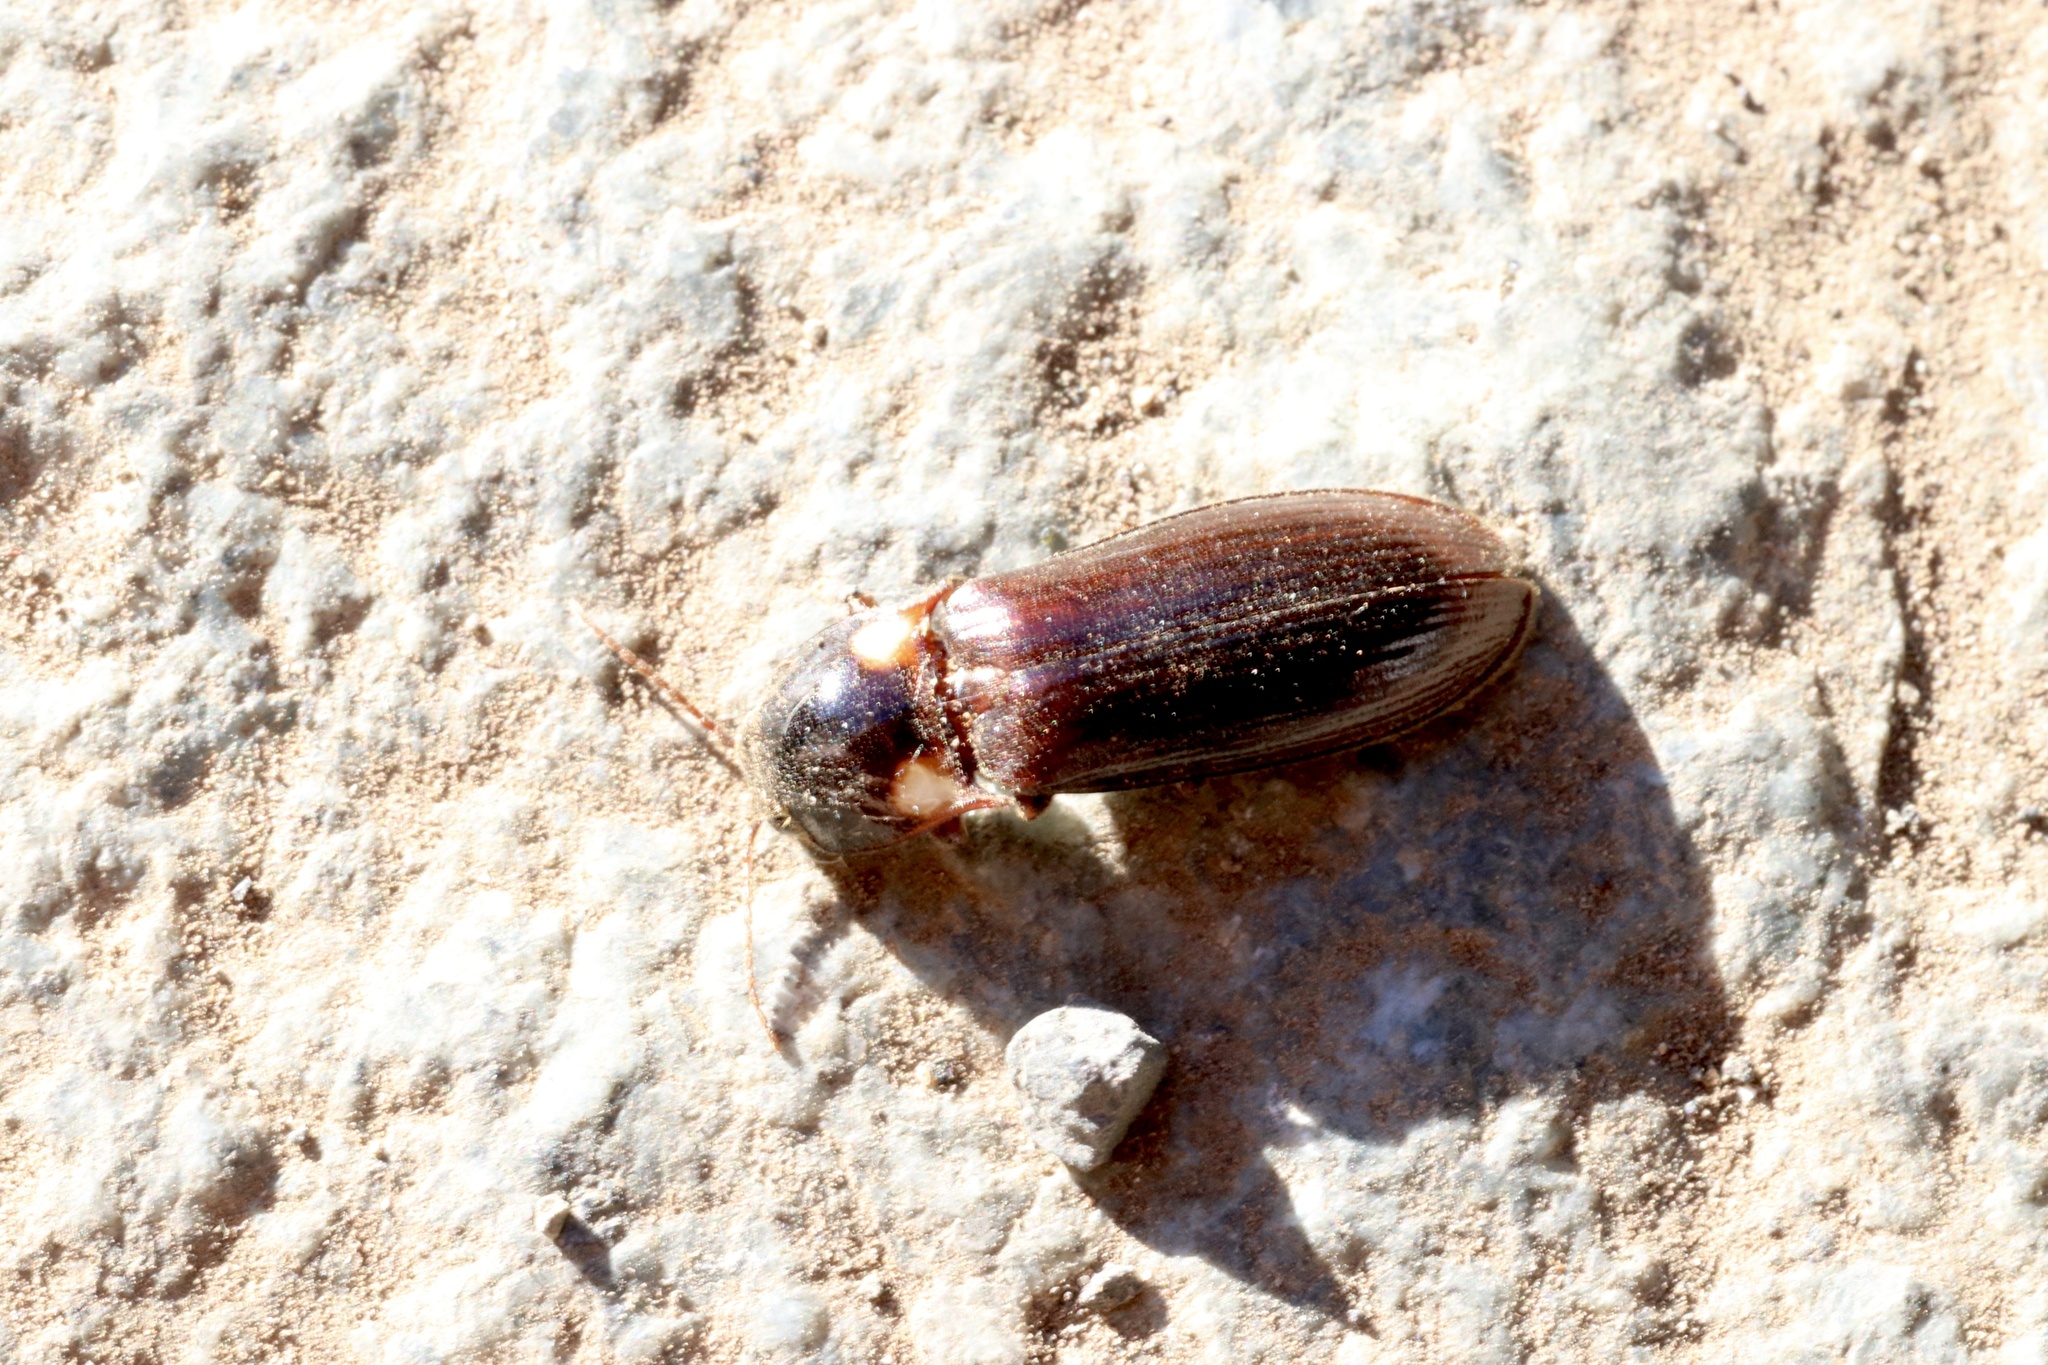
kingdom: Animalia
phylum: Arthropoda
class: Insecta
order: Coleoptera
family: Elateridae
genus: Phanophorus
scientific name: Phanophorus
